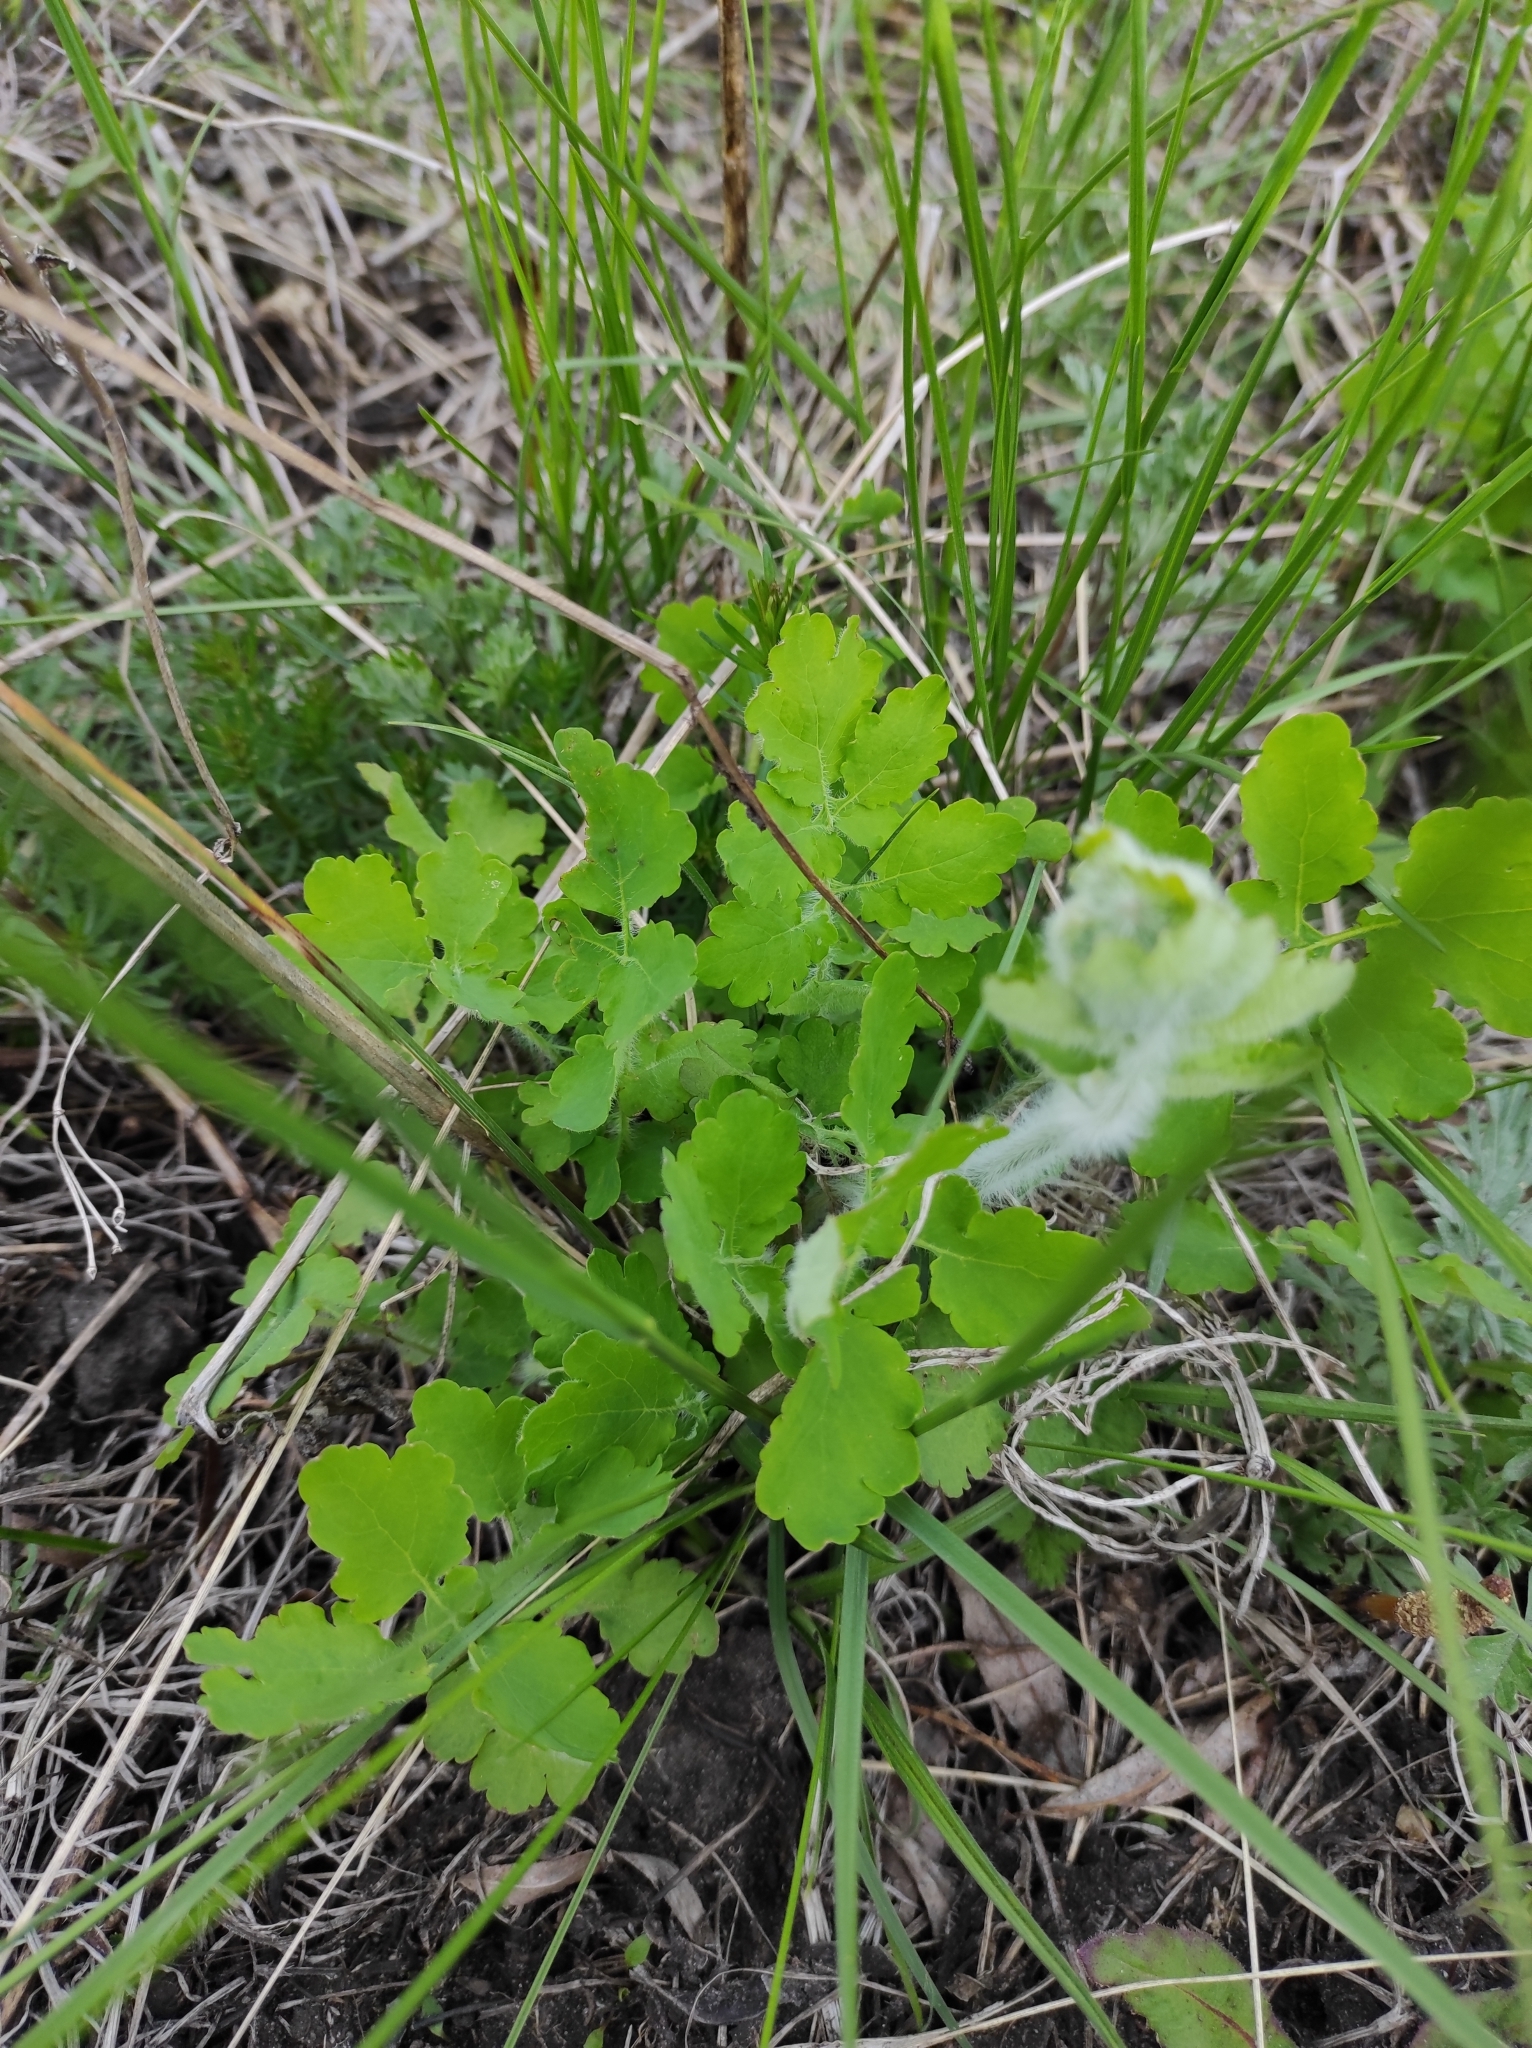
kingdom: Plantae
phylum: Tracheophyta
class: Magnoliopsida
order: Ranunculales
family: Papaveraceae
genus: Chelidonium
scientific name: Chelidonium majus
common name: Greater celandine
